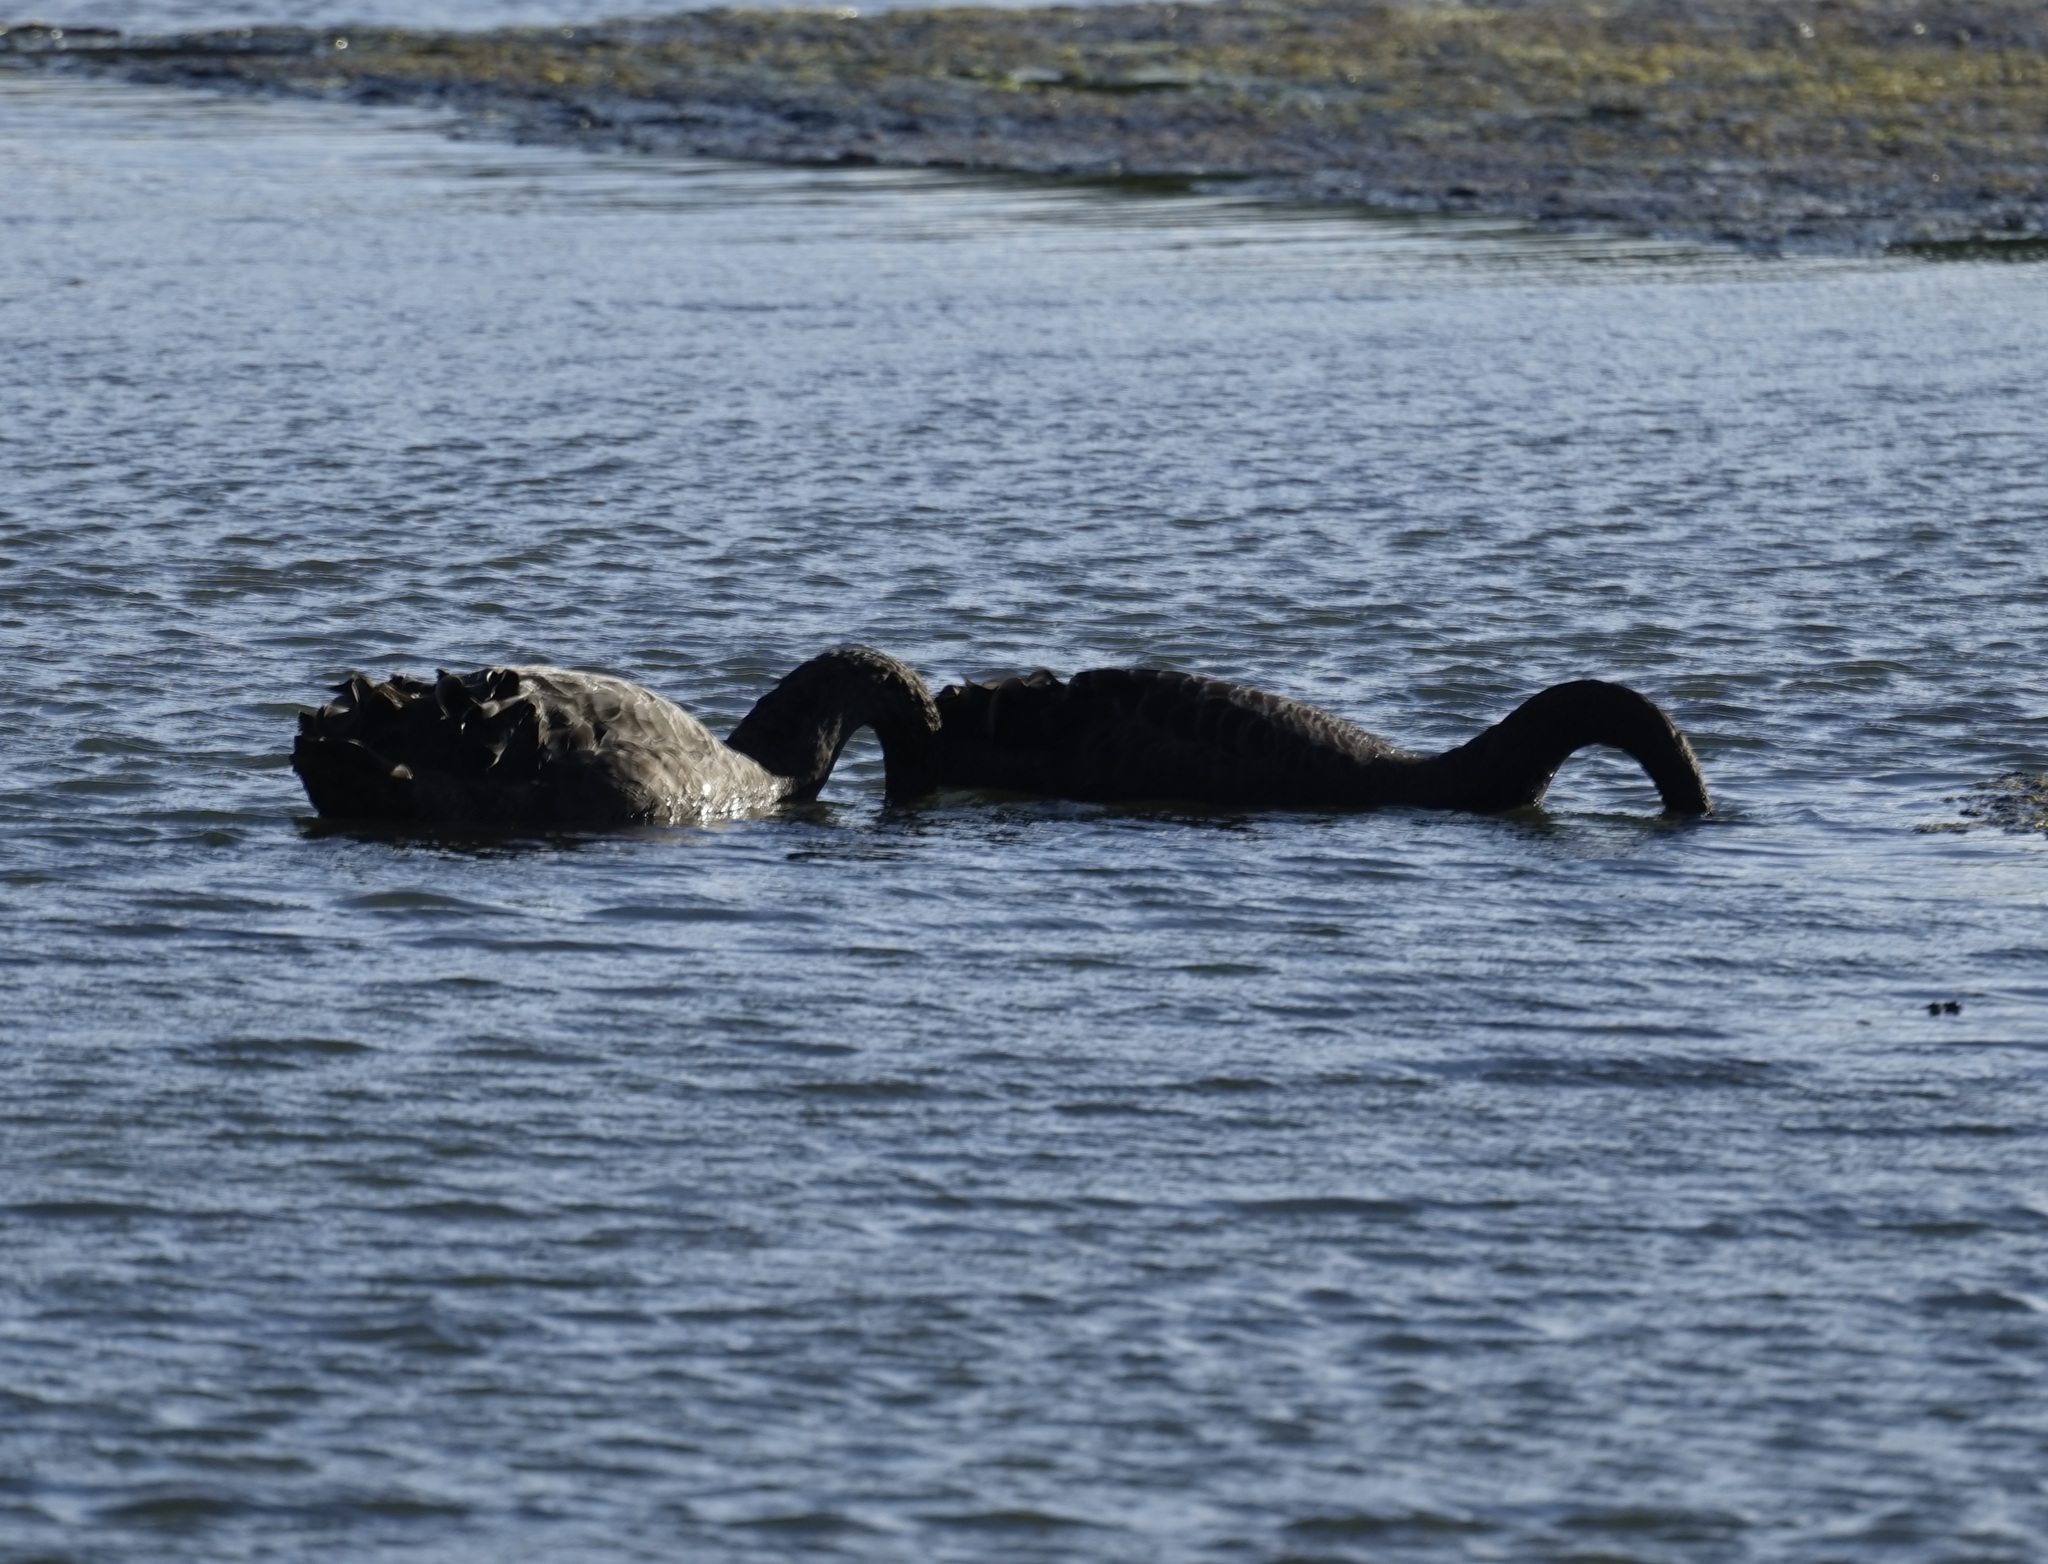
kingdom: Animalia
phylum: Chordata
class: Aves
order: Anseriformes
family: Anatidae
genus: Cygnus
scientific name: Cygnus atratus
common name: Black swan
